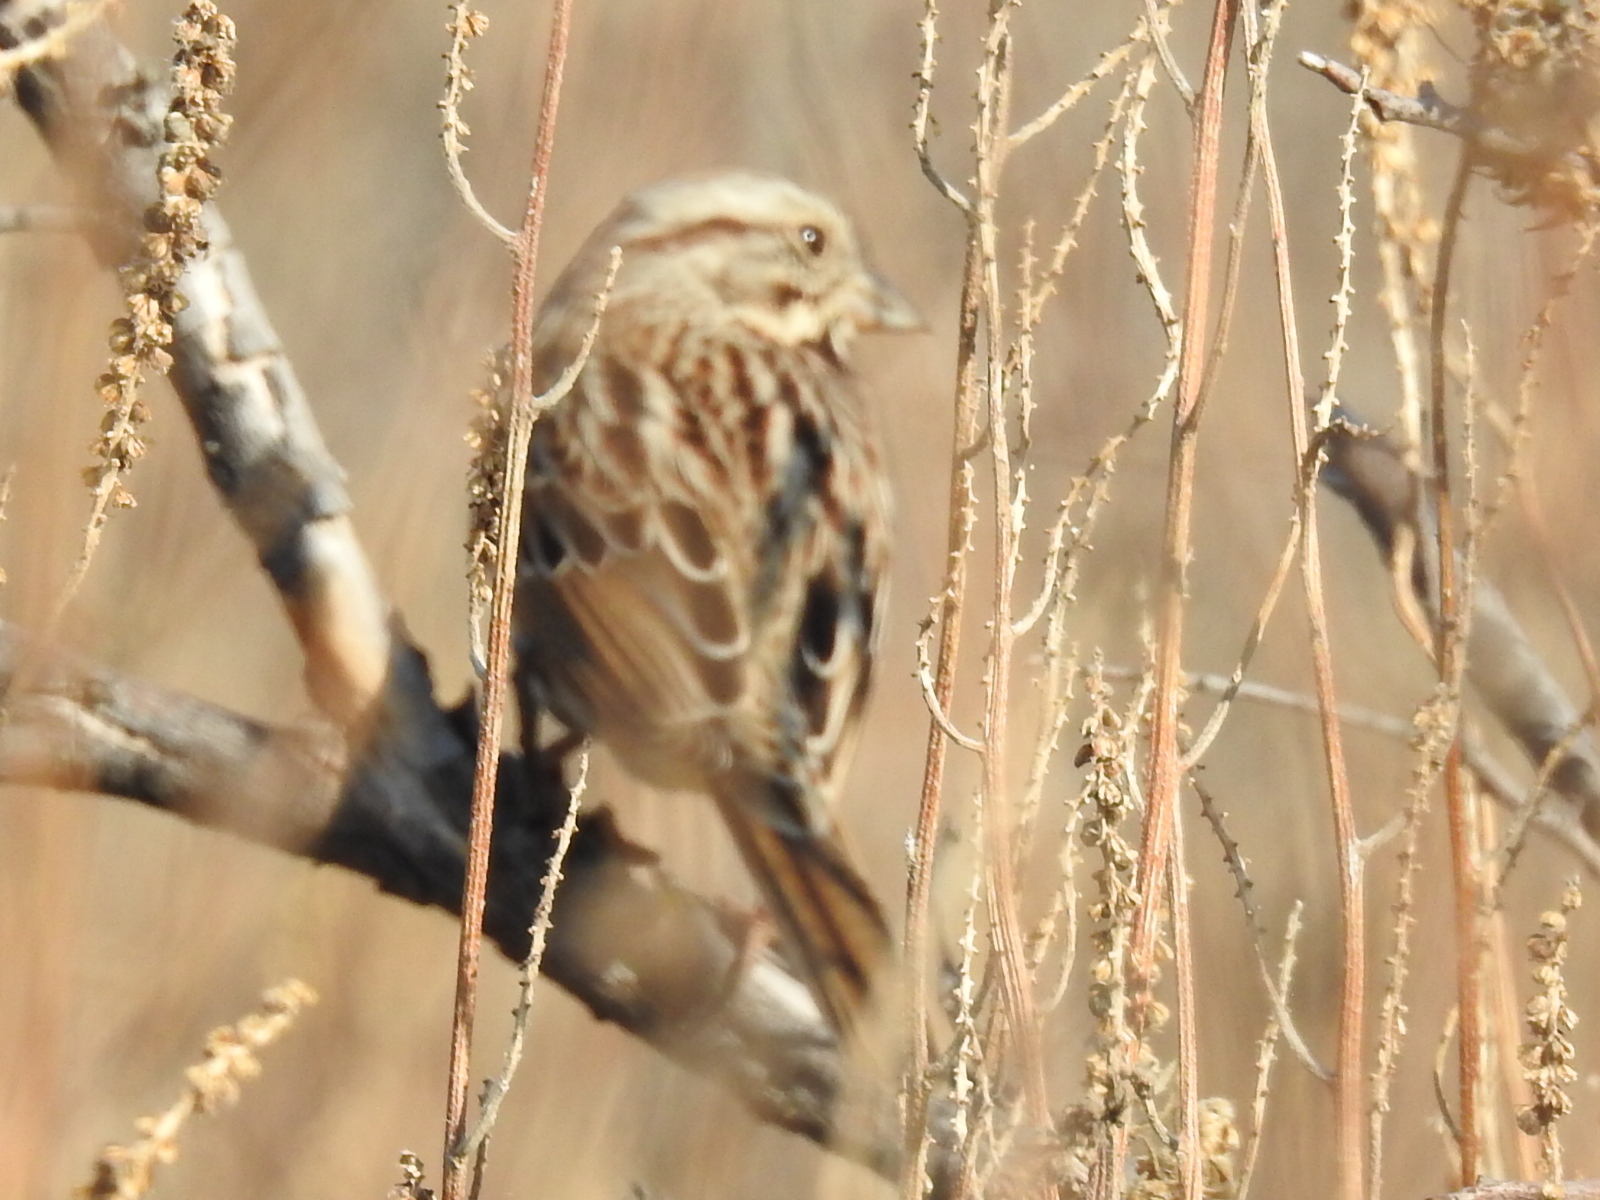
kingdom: Animalia
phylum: Chordata
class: Aves
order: Passeriformes
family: Passerellidae
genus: Melospiza
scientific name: Melospiza melodia
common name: Song sparrow
